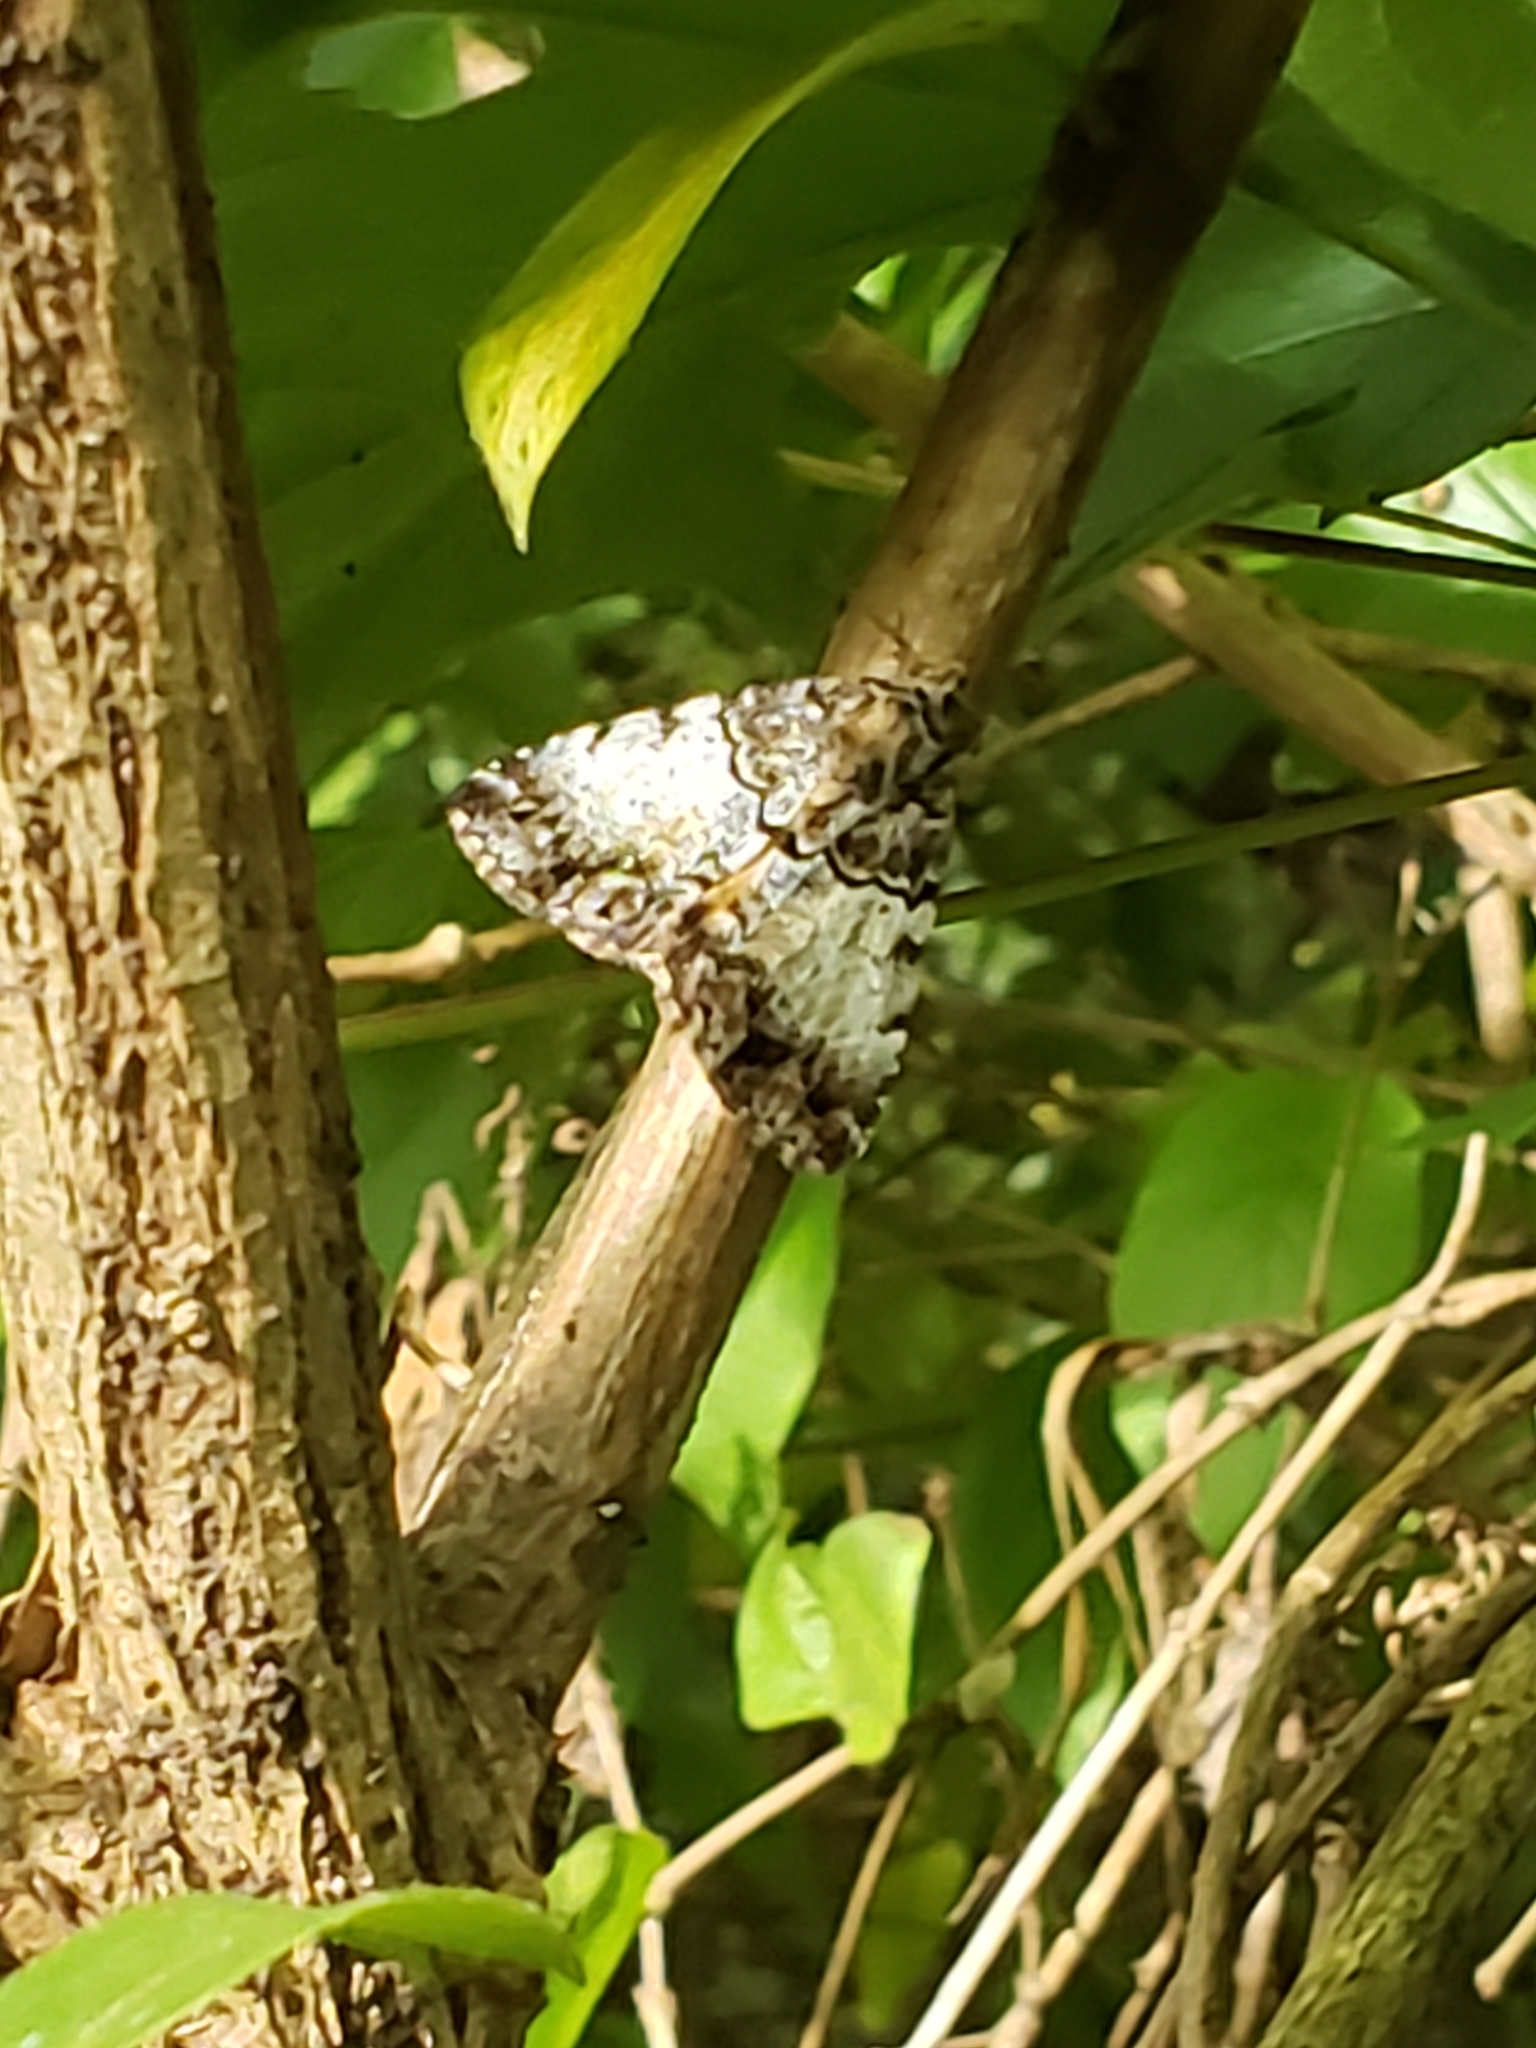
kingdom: Animalia
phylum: Arthropoda
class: Insecta
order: Lepidoptera
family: Erebidae
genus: Allotria
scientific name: Allotria elonympha
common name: False underwing
